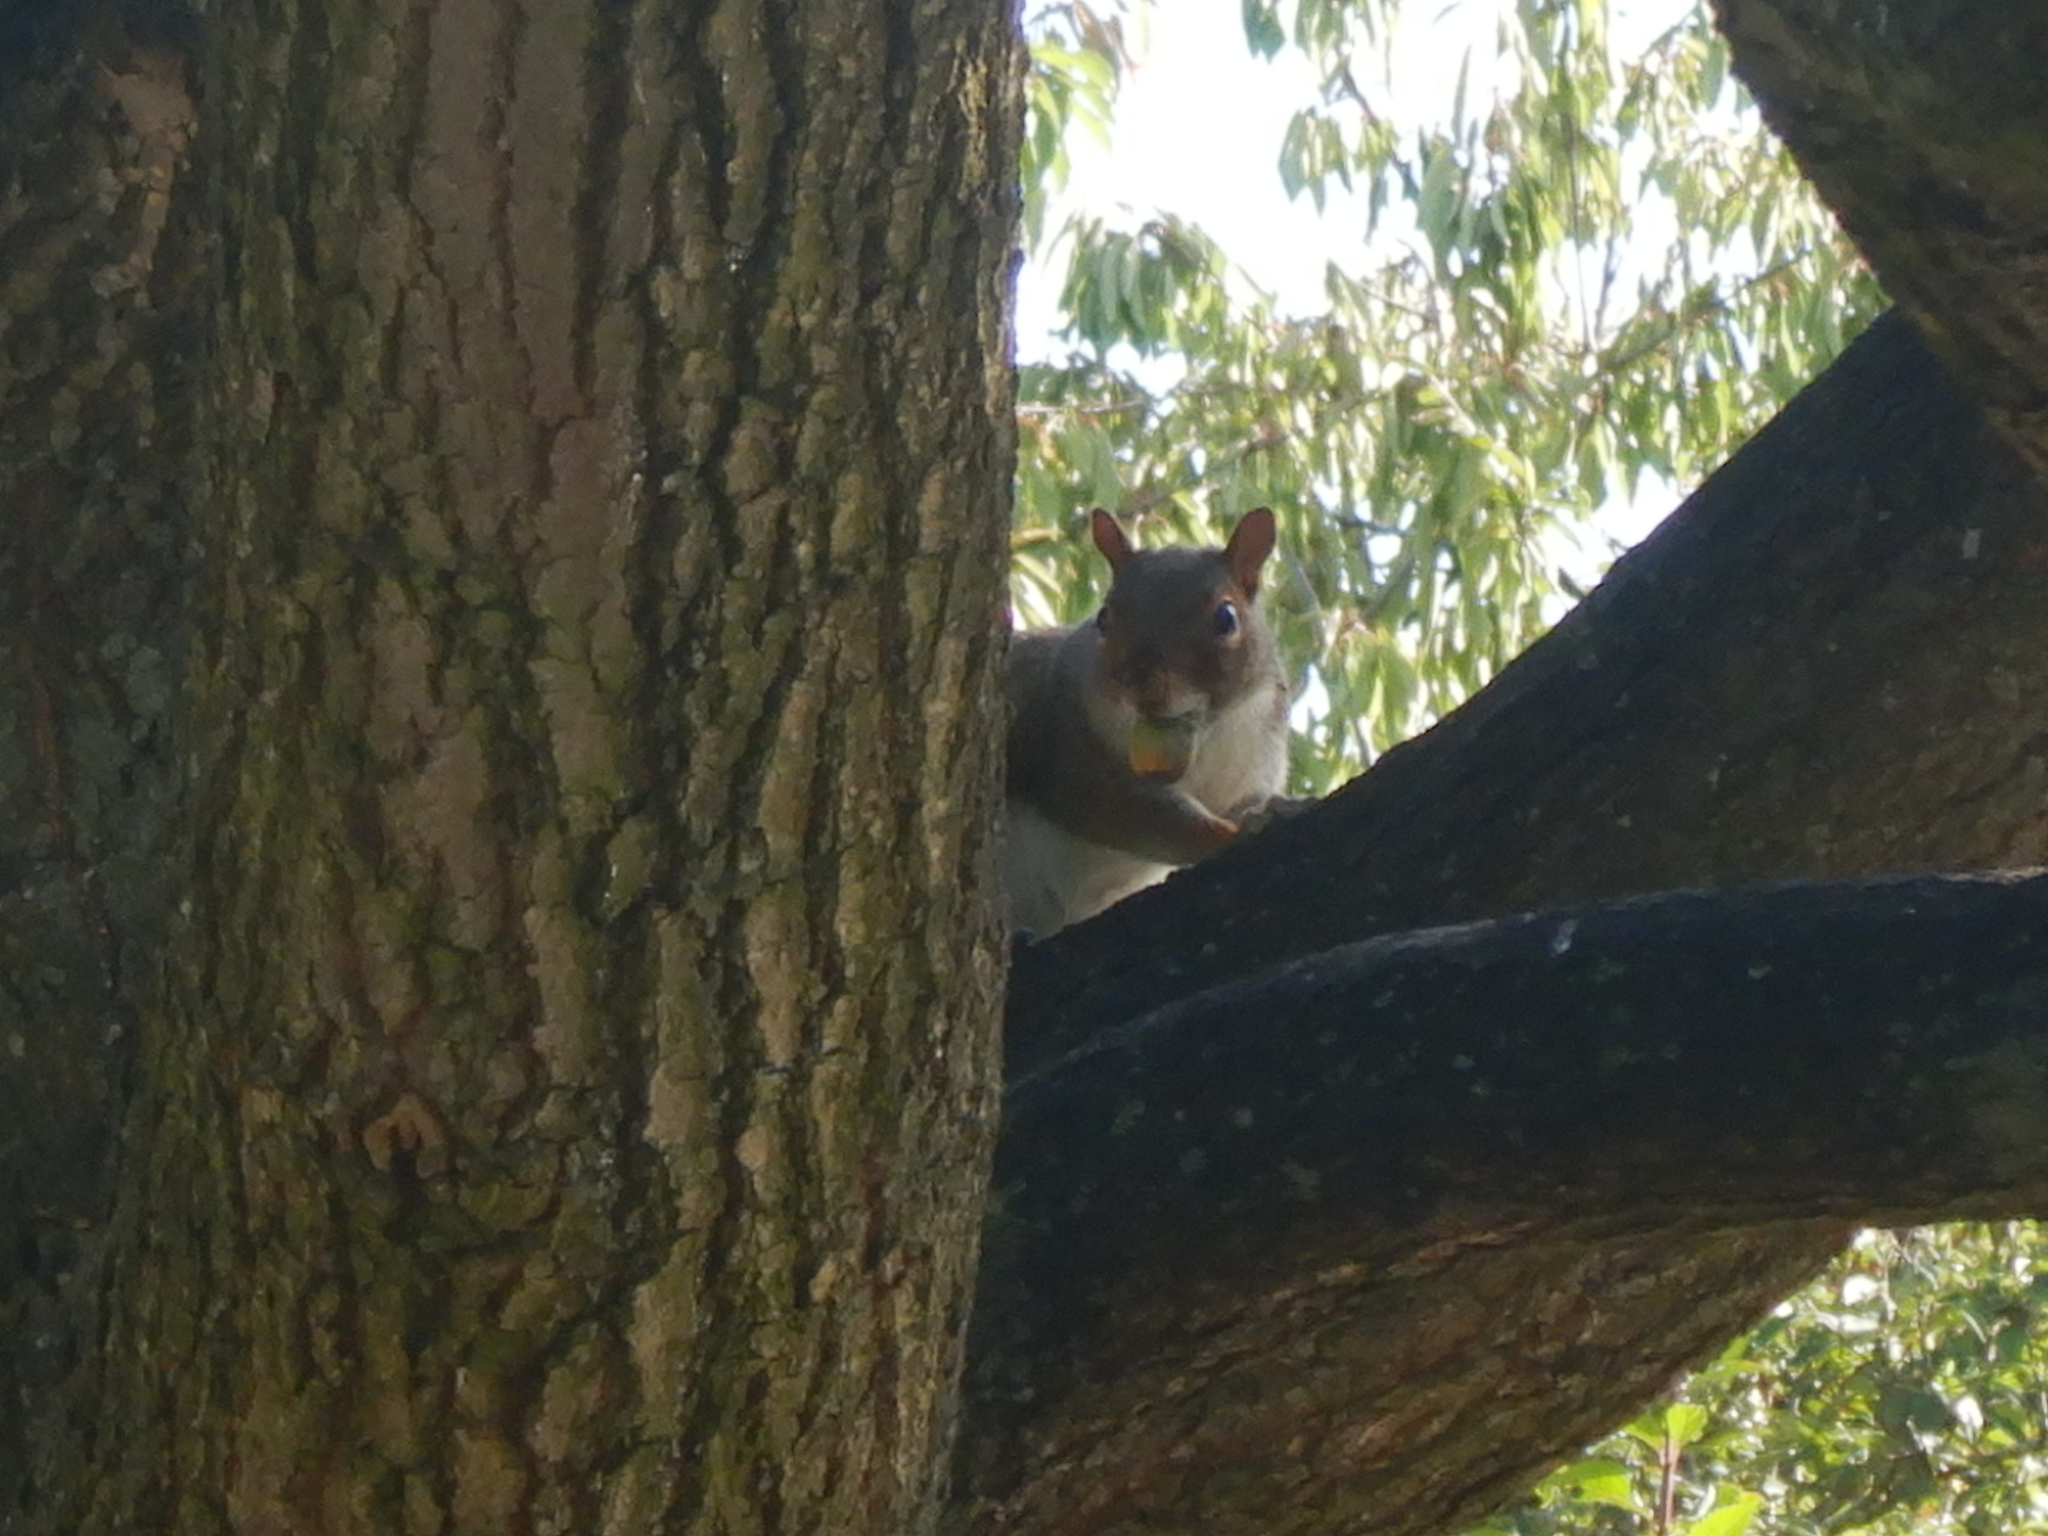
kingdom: Animalia
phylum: Chordata
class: Mammalia
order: Rodentia
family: Sciuridae
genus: Sciurus
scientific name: Sciurus carolinensis
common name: Eastern gray squirrel
